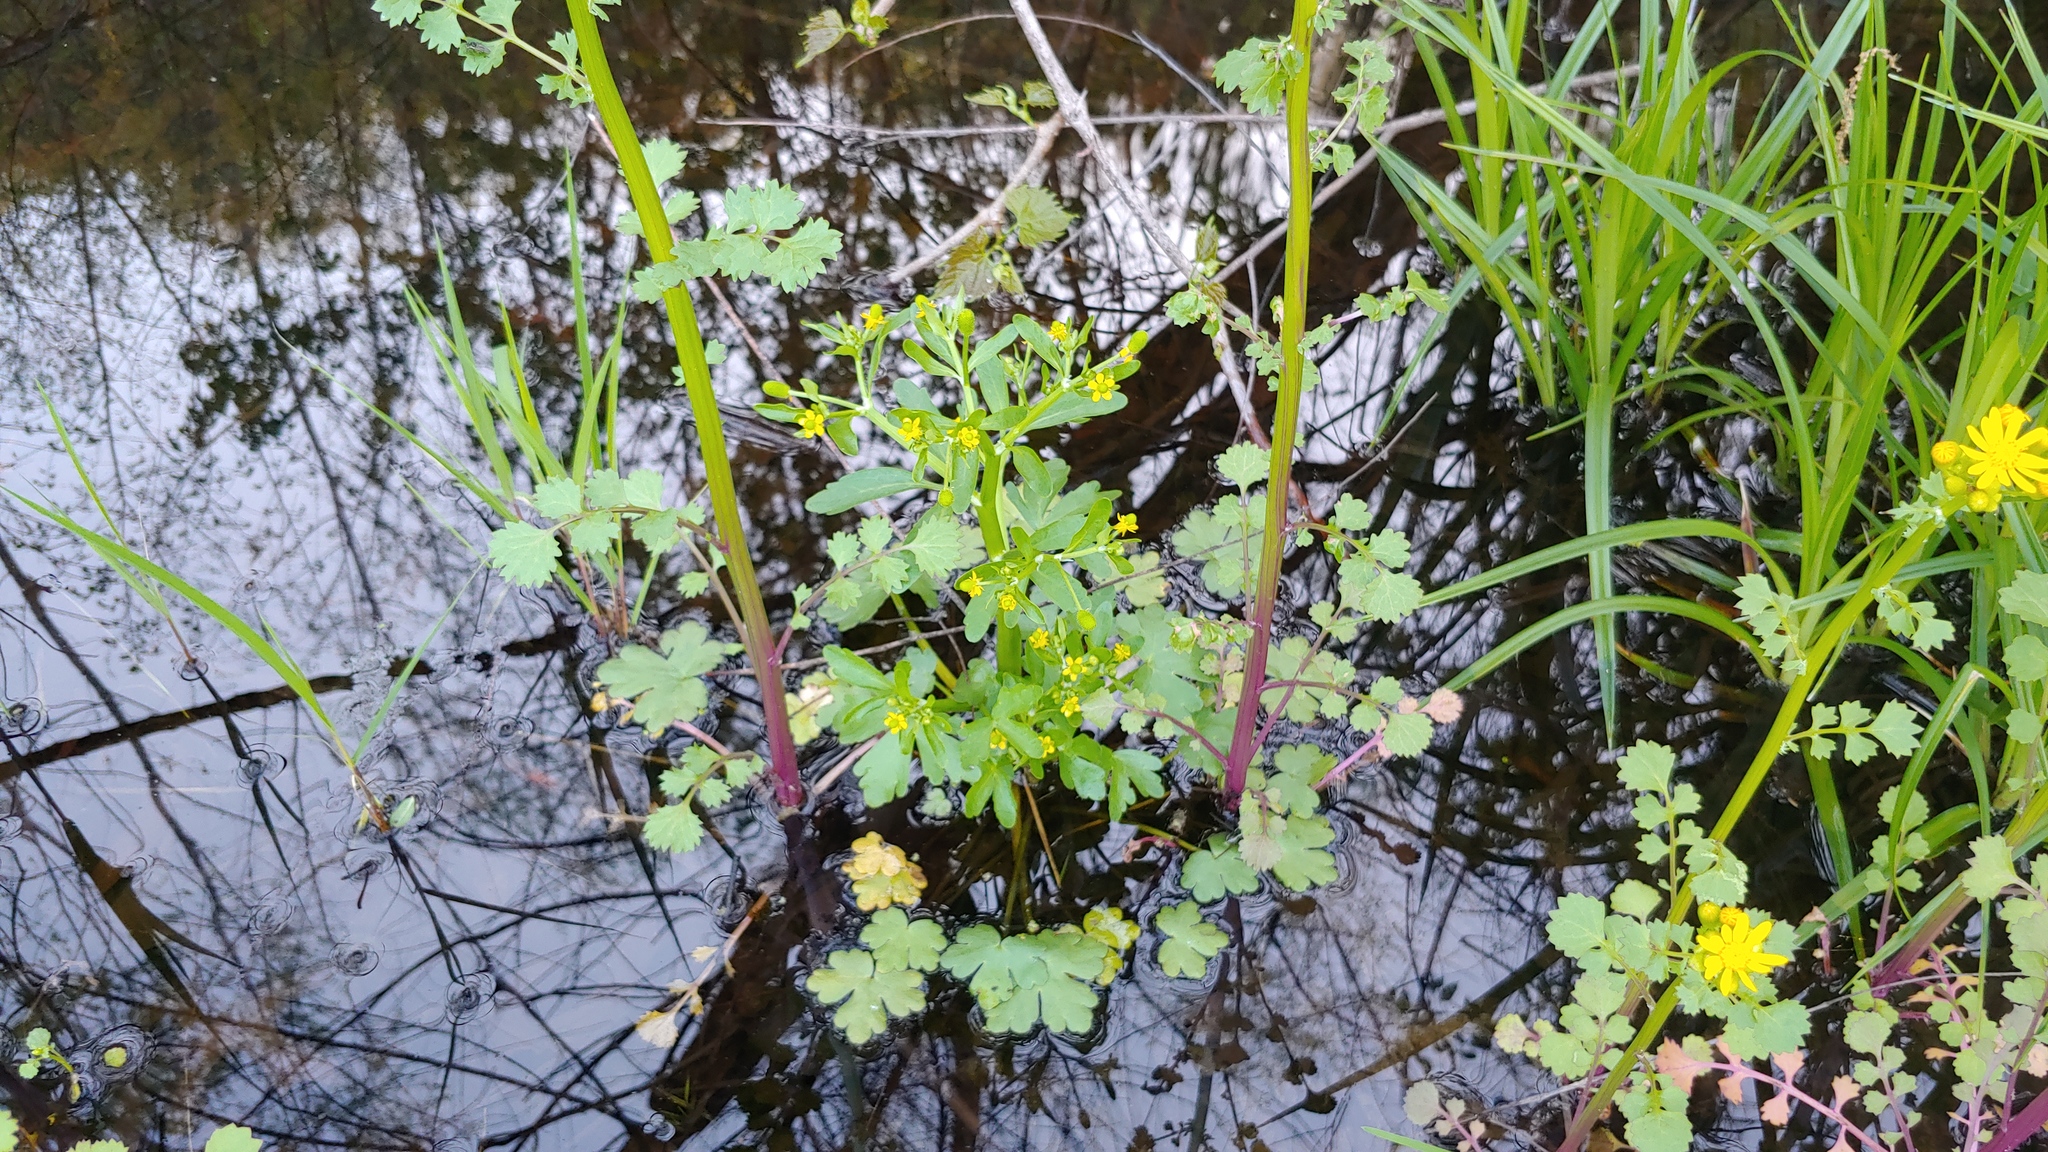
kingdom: Plantae
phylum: Tracheophyta
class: Magnoliopsida
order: Ranunculales
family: Ranunculaceae
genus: Ranunculus
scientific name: Ranunculus sceleratus
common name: Celery-leaved buttercup
